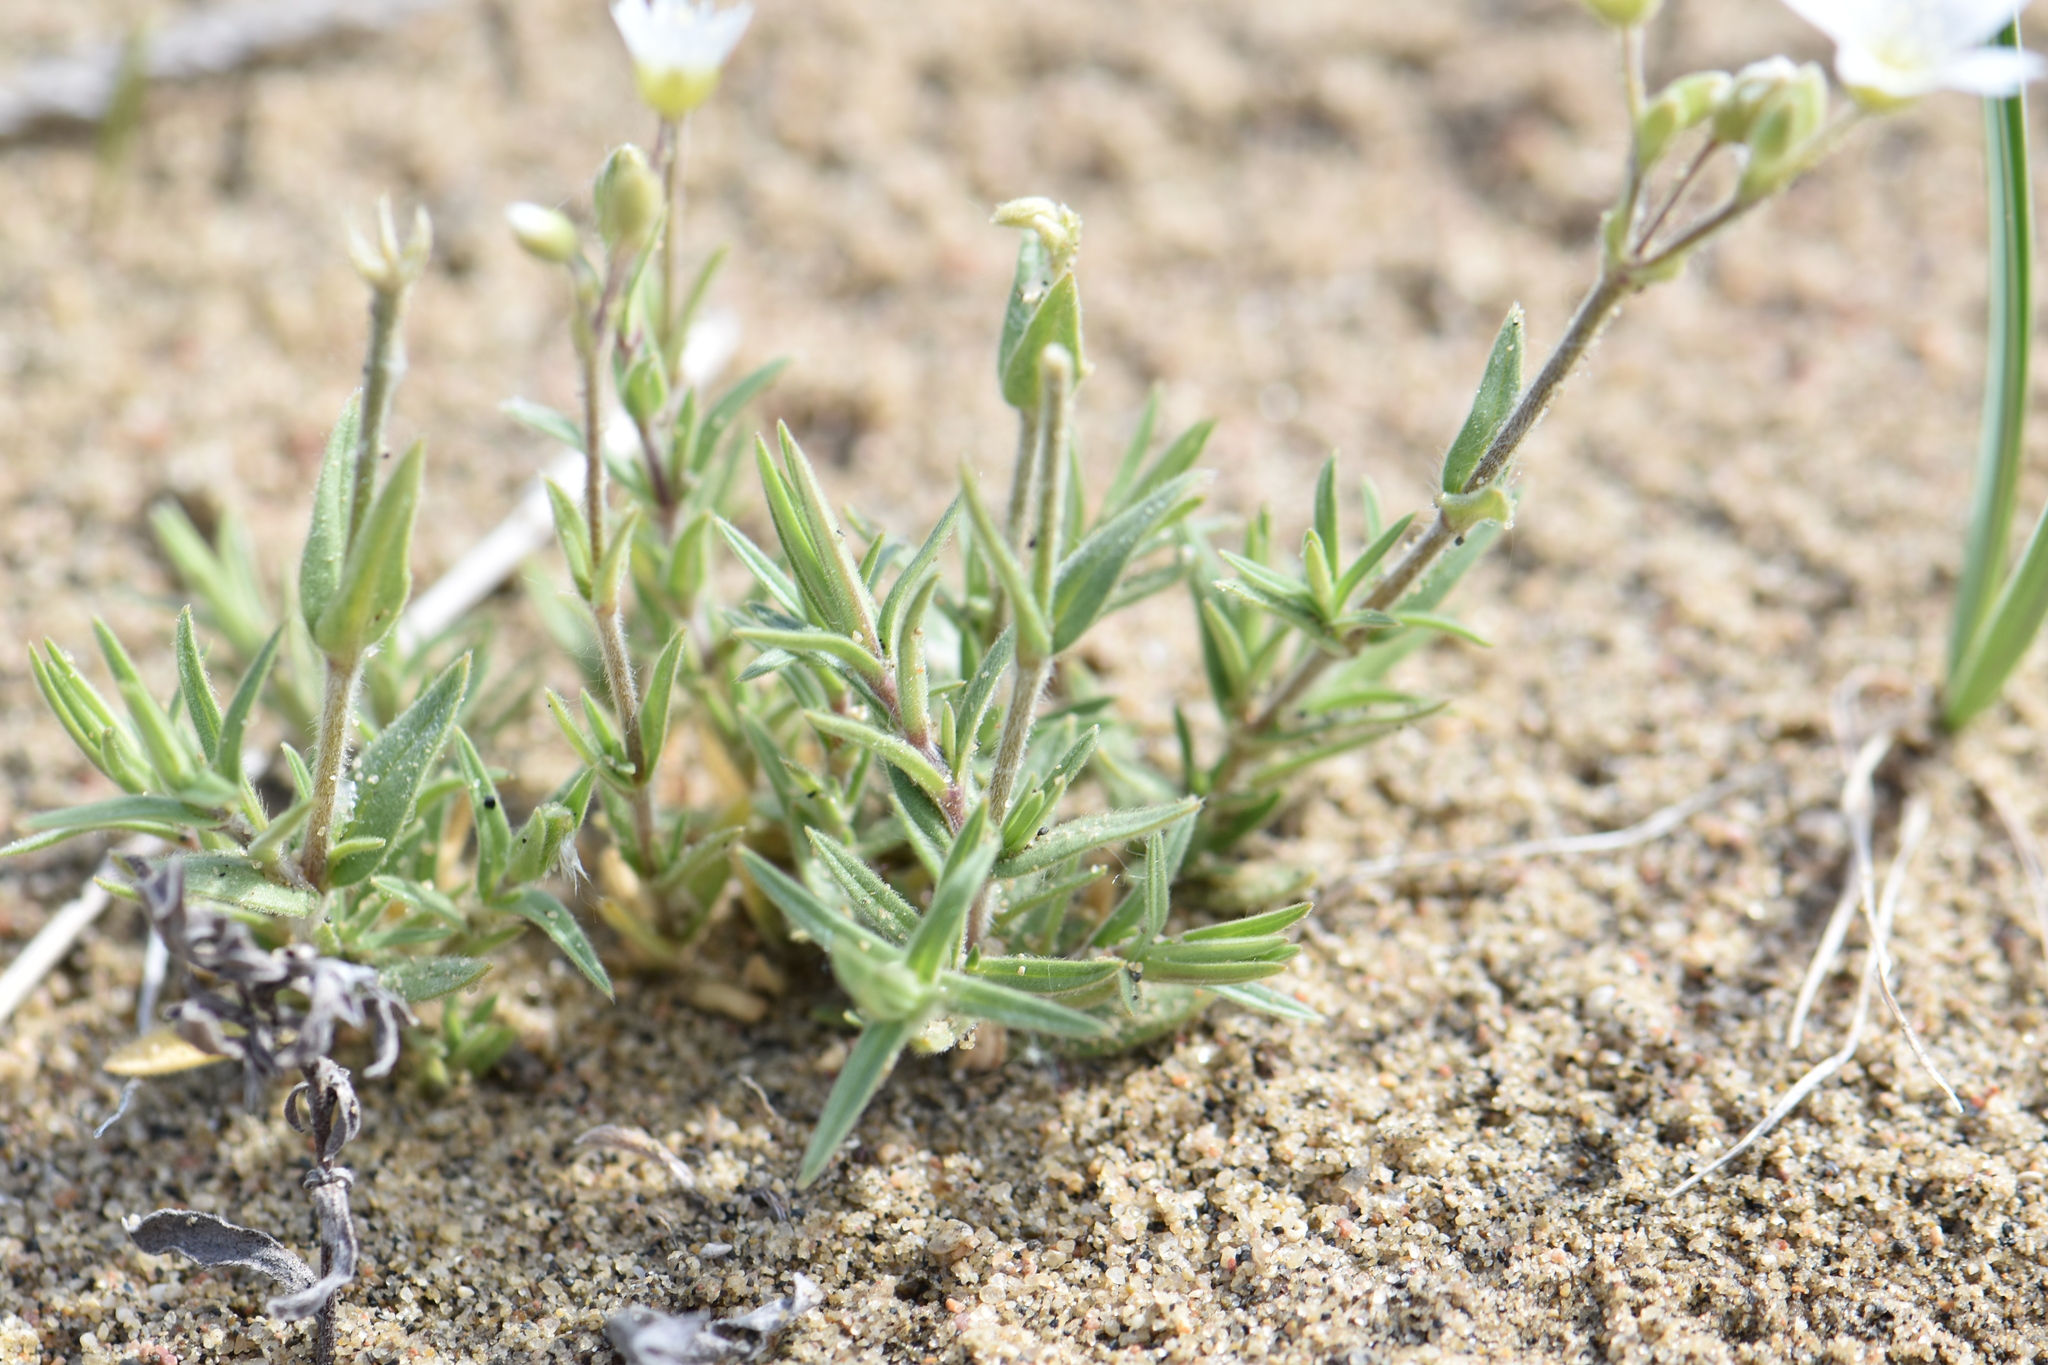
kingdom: Plantae
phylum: Tracheophyta
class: Magnoliopsida
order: Caryophyllales
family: Caryophyllaceae
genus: Cerastium
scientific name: Cerastium arvense
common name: Field mouse-ear
